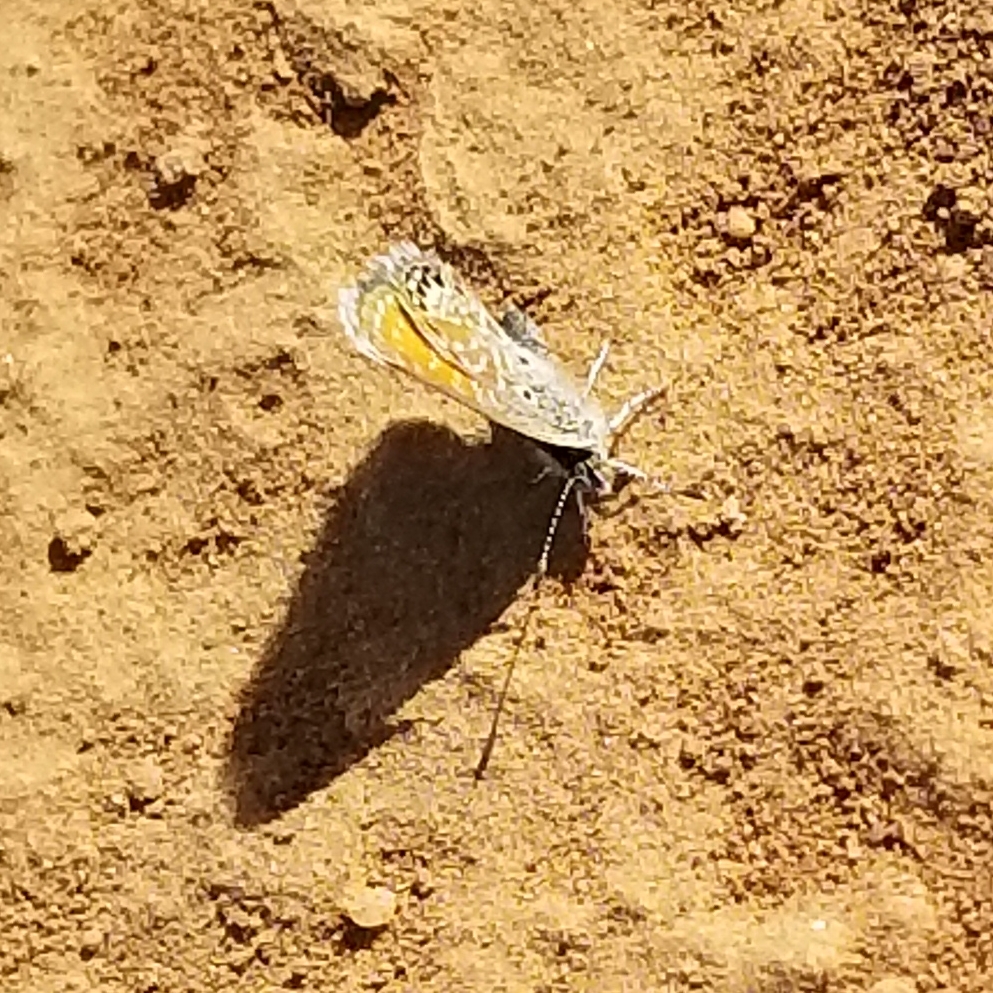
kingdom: Animalia
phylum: Arthropoda
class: Insecta
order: Lepidoptera
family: Lycaenidae
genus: Brephidium
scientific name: Brephidium exilis
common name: Pygmy blue
